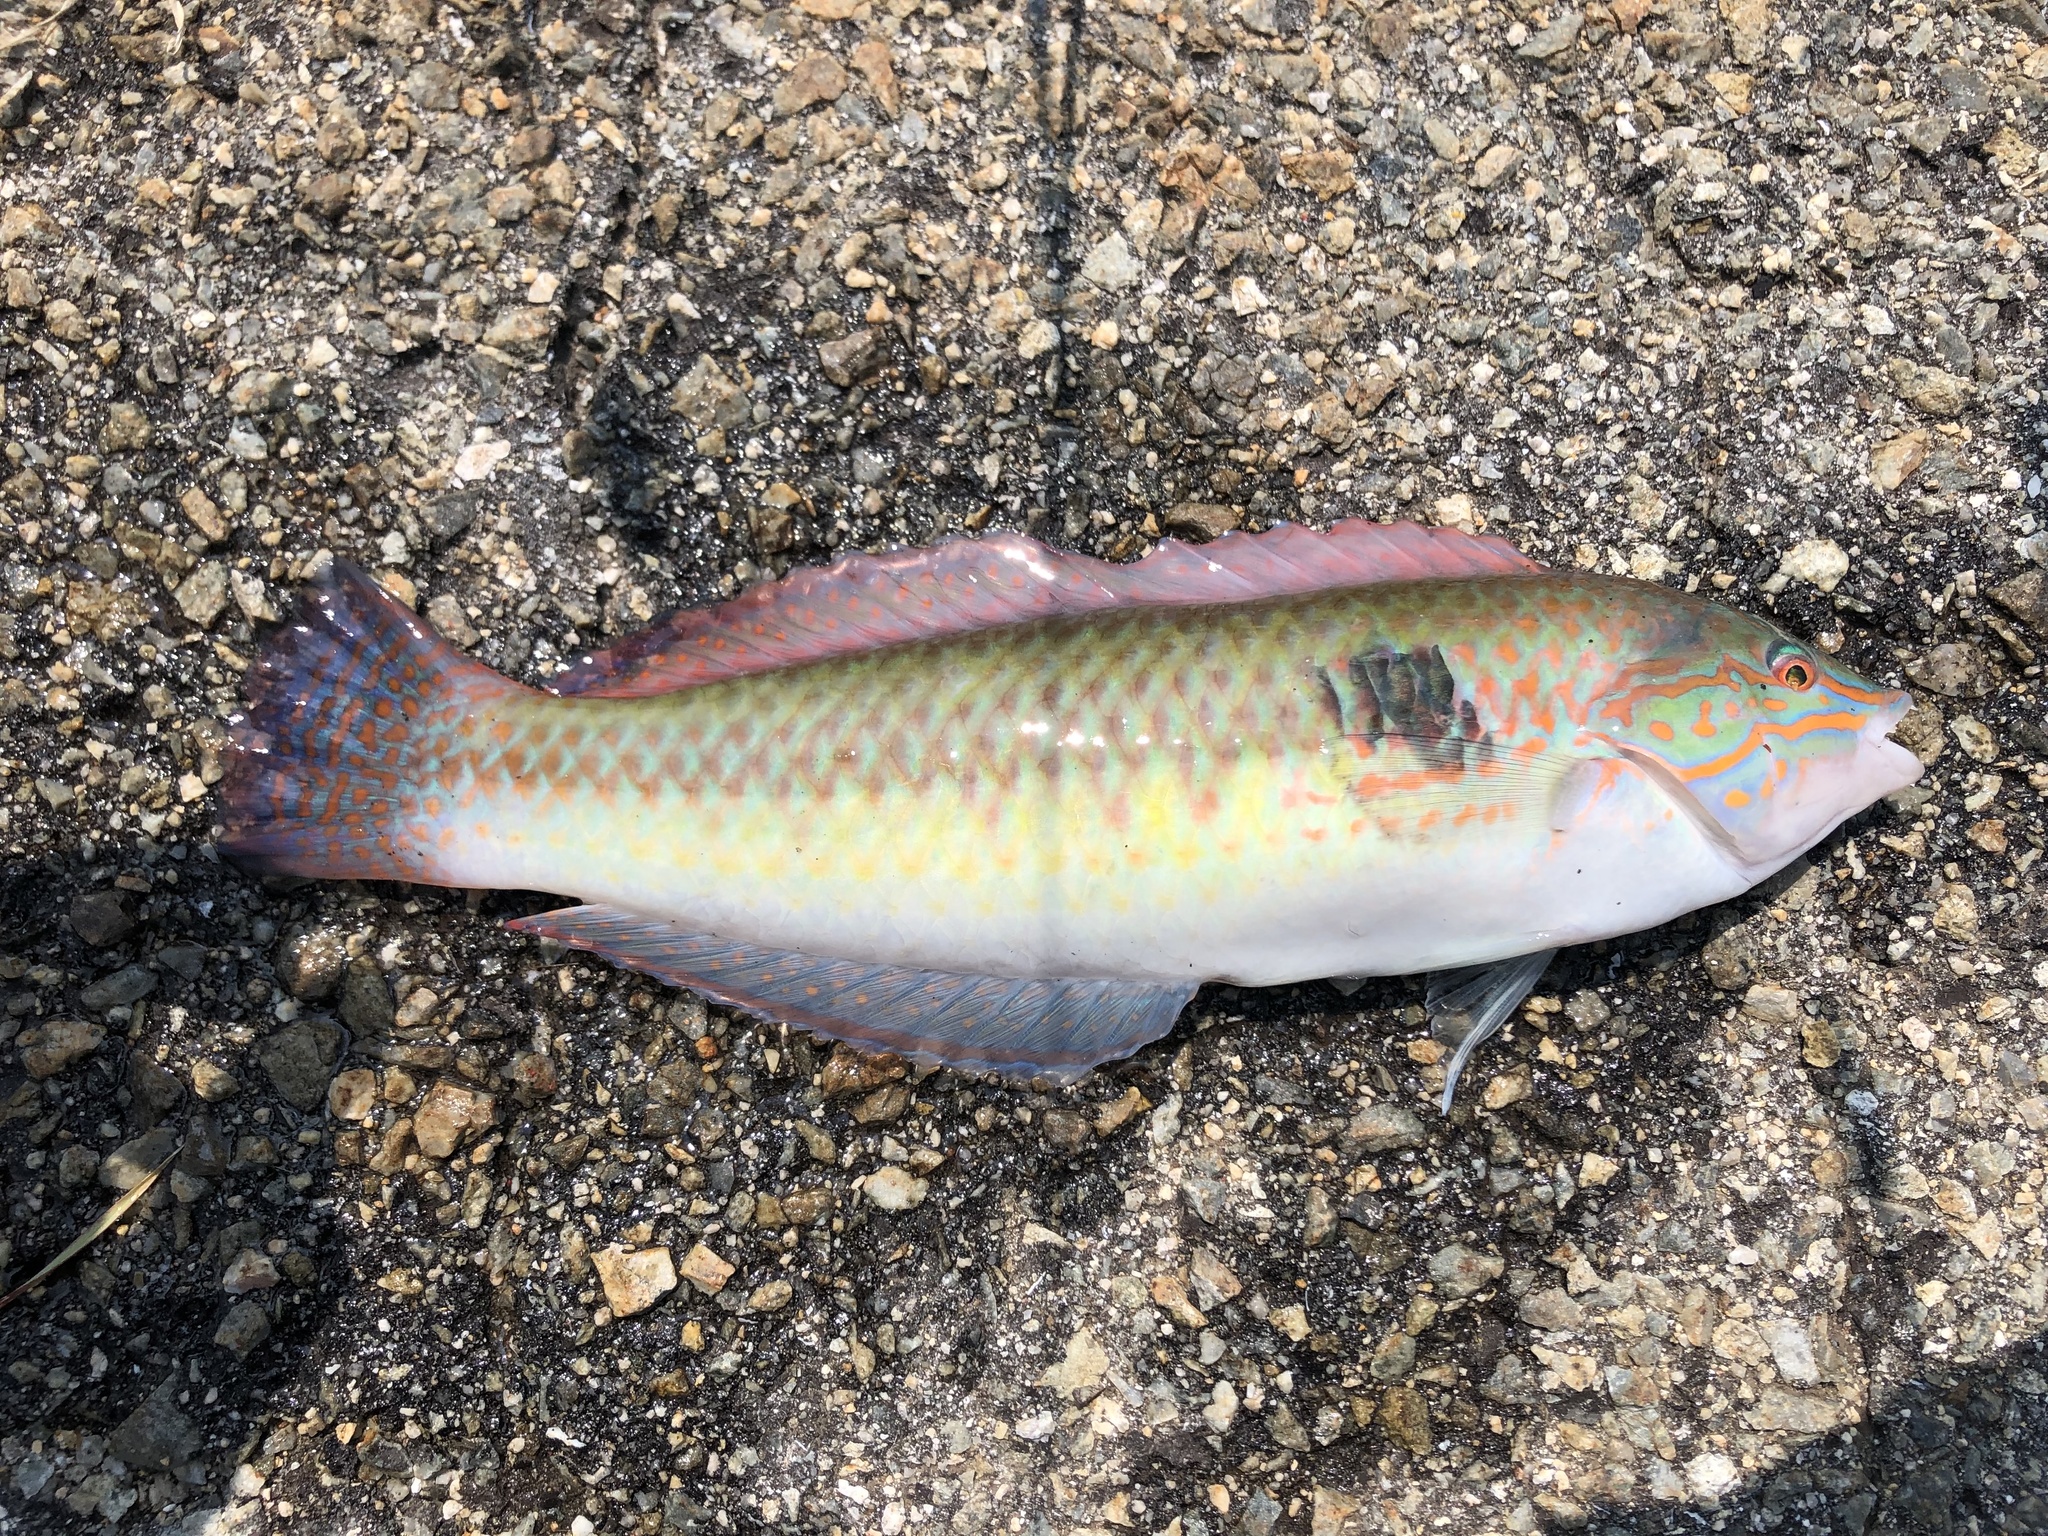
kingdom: Animalia
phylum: Chordata
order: Perciformes
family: Labridae
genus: Parajulis
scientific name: Parajulis poecilepterus
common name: Multicolorfin rainbowfish
